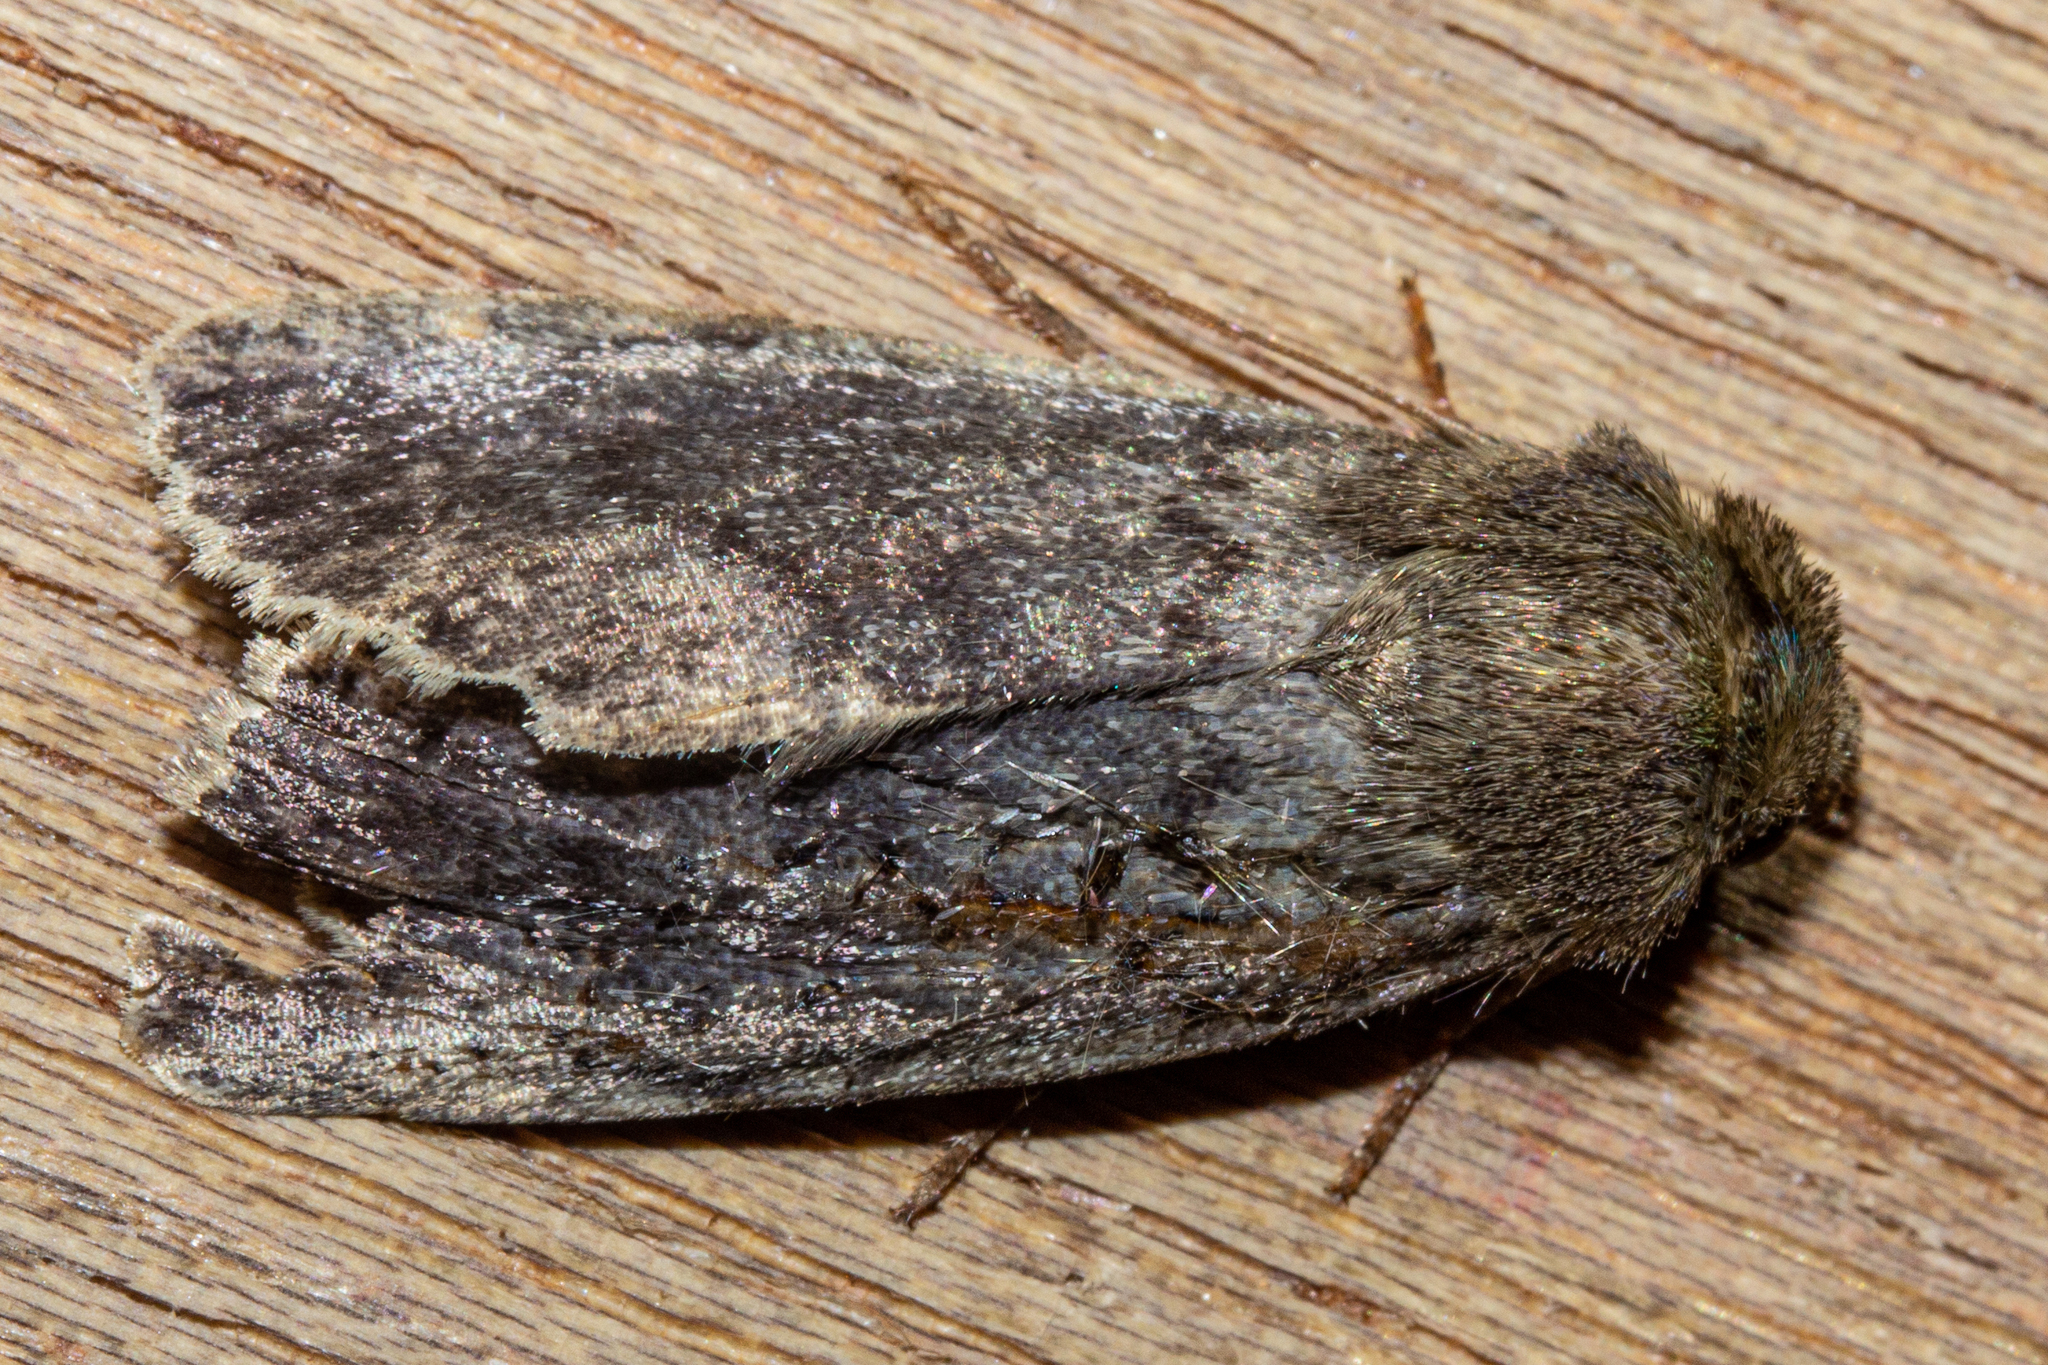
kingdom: Animalia
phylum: Arthropoda
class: Insecta
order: Lepidoptera
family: Noctuidae
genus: Bityla
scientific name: Bityla sericea
